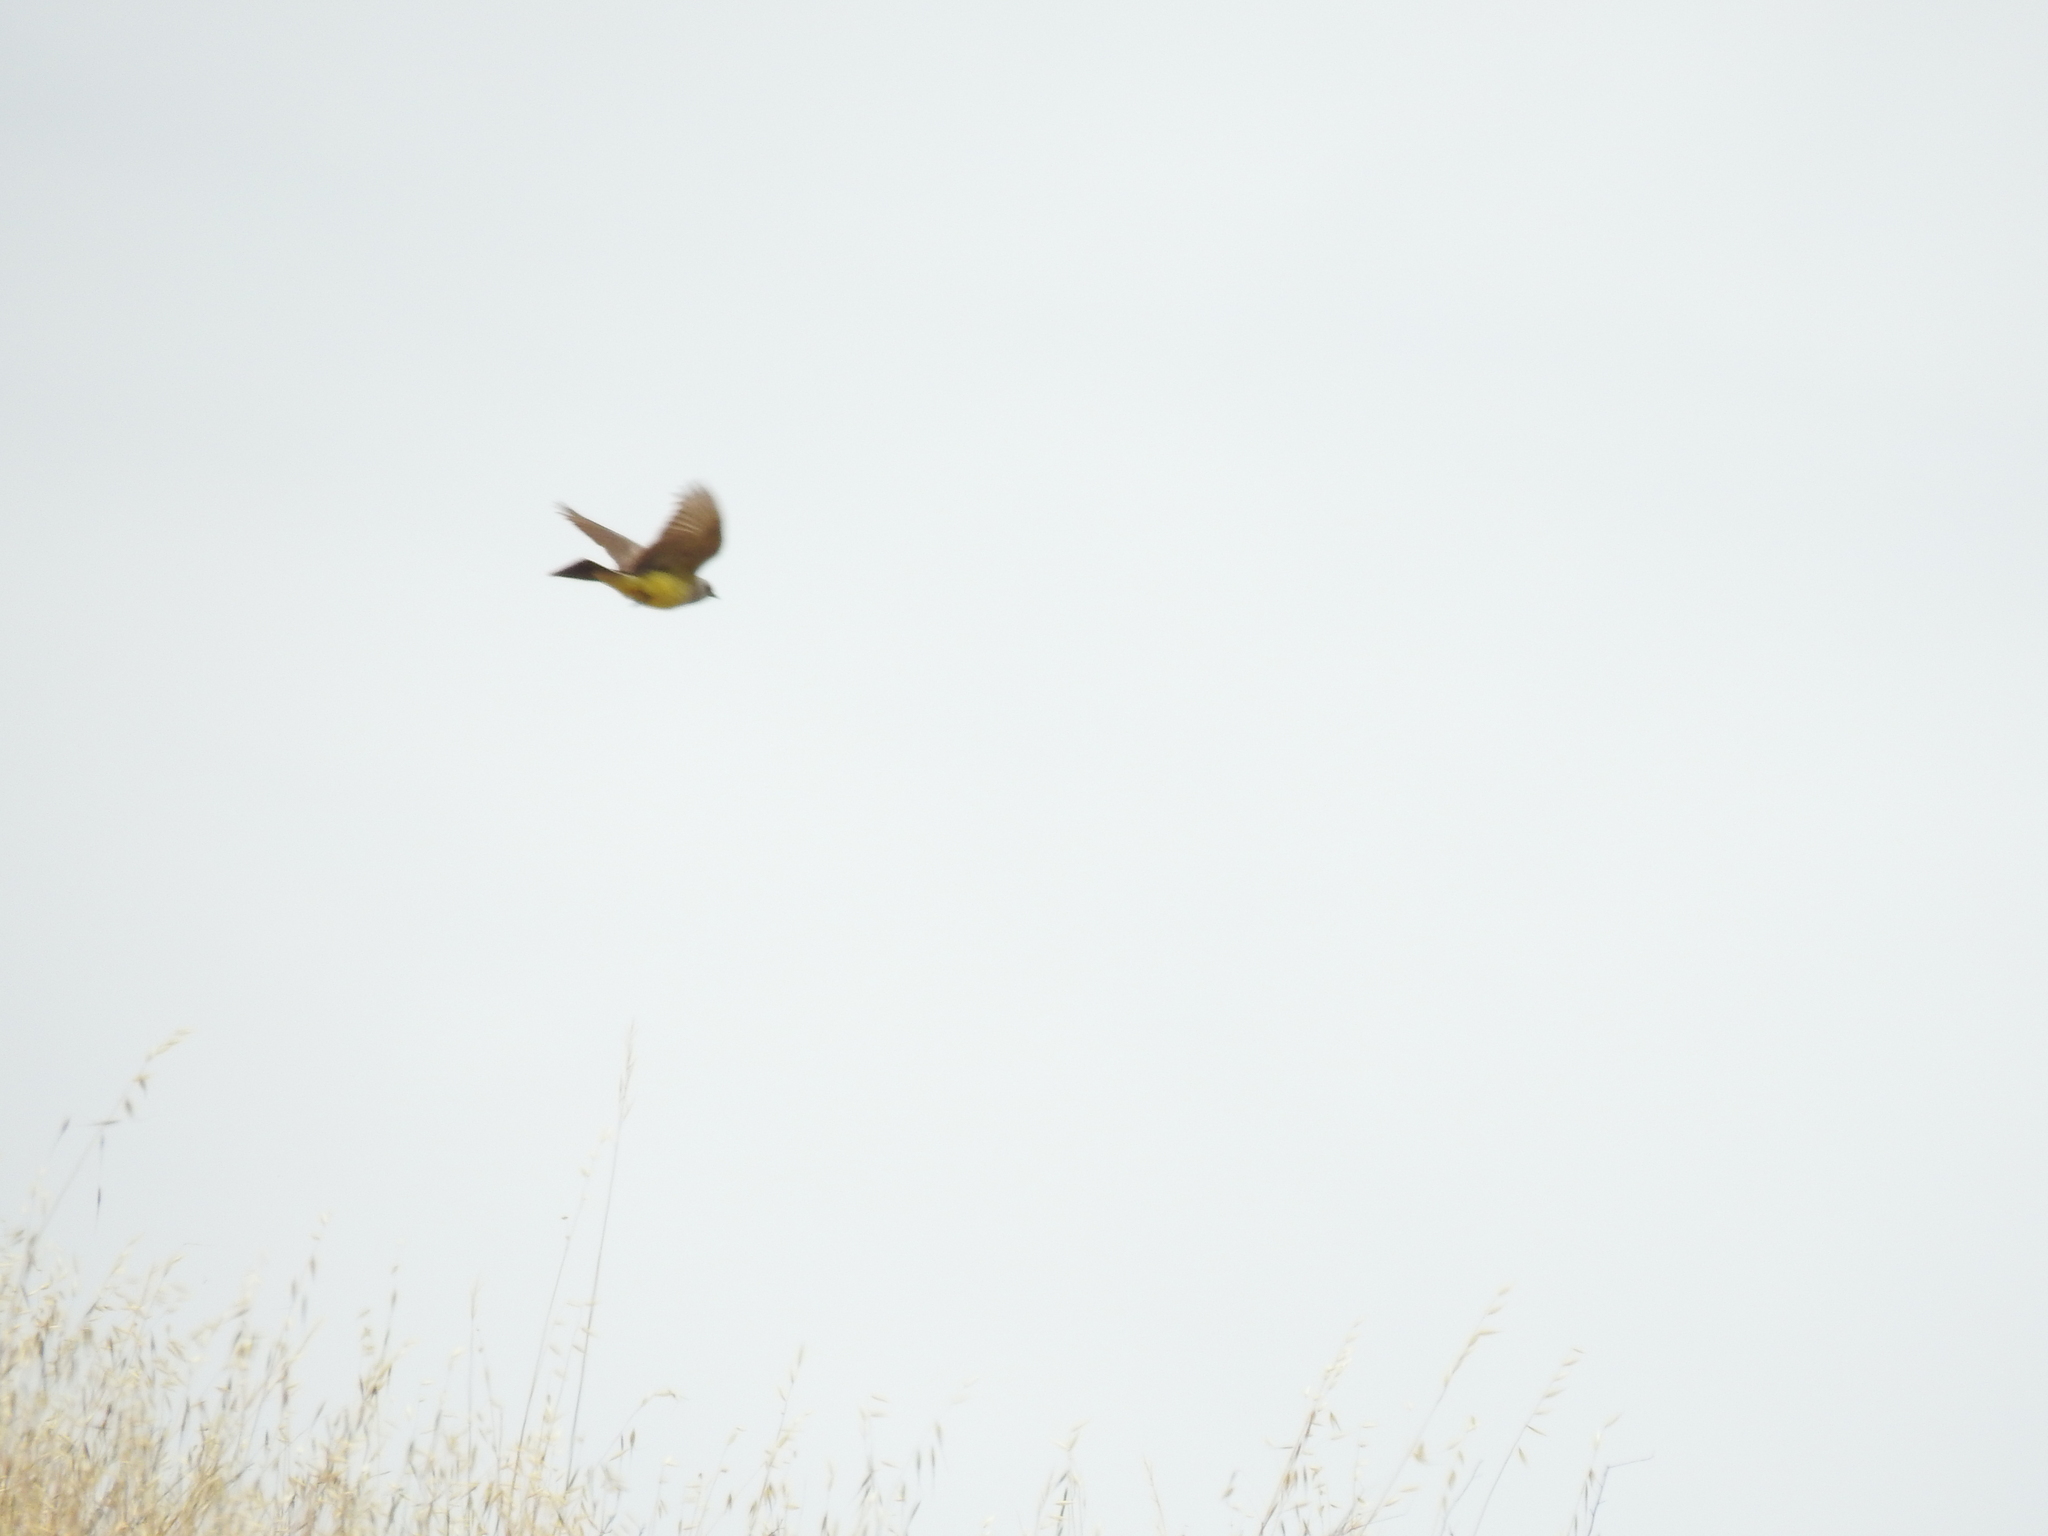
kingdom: Animalia
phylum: Chordata
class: Aves
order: Passeriformes
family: Tyrannidae
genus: Tyrannus
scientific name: Tyrannus verticalis
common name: Western kingbird
